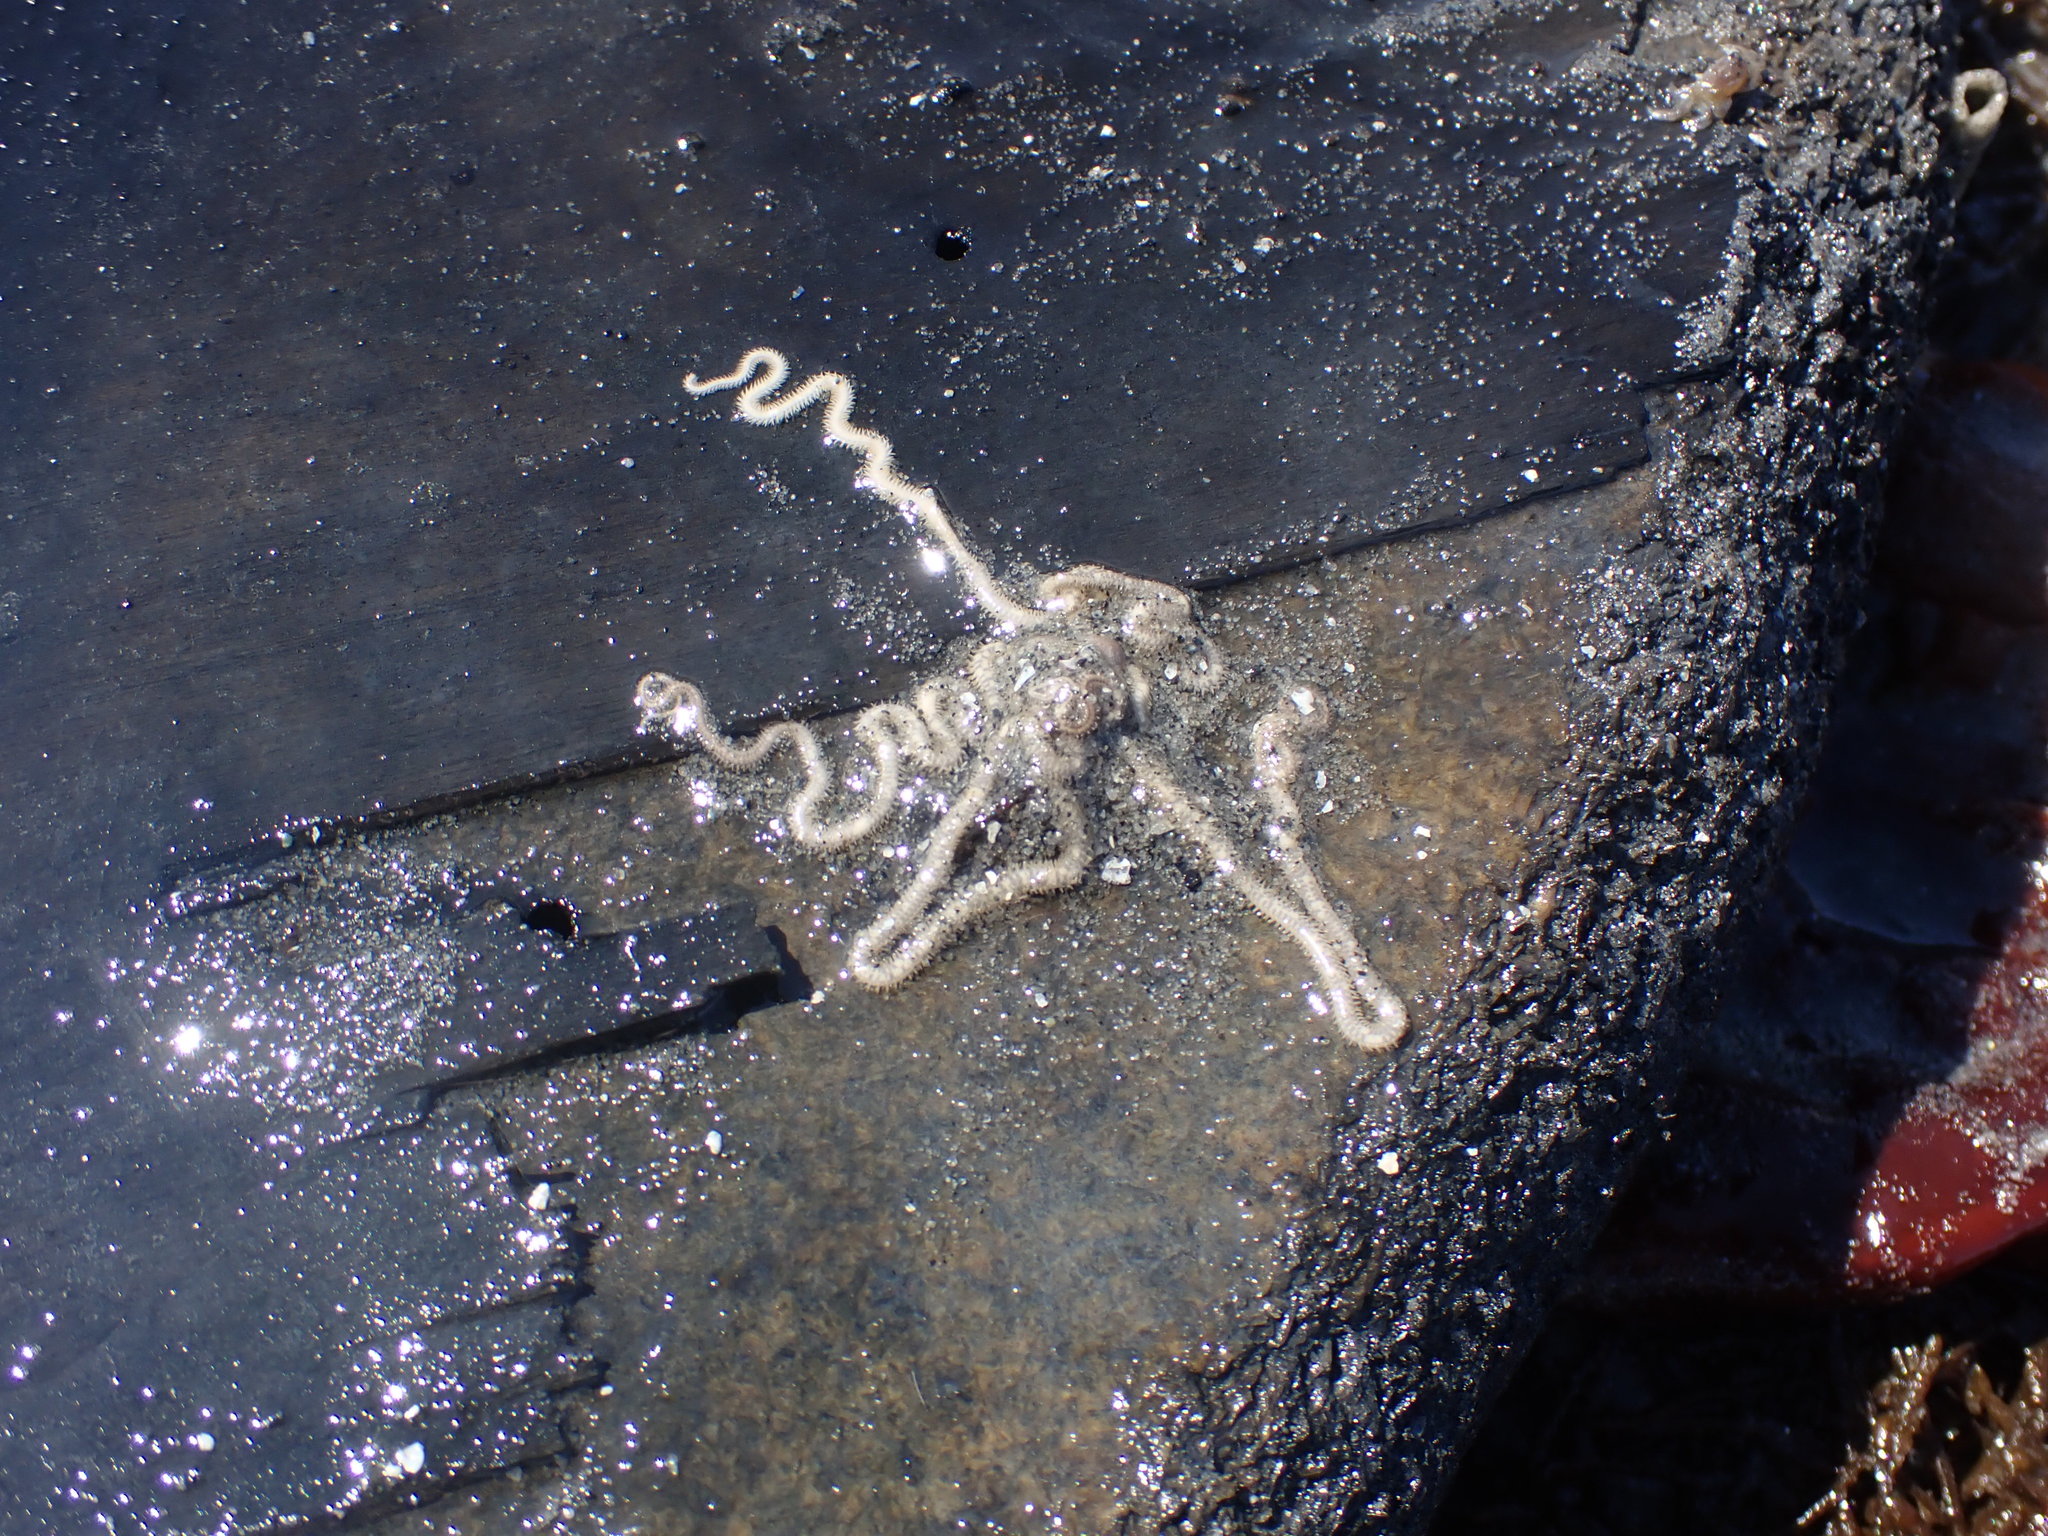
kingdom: Animalia
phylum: Echinodermata
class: Ophiuroidea
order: Amphilepidida
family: Amphiuridae
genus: Amphiodia
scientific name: Amphiodia occidentalis
